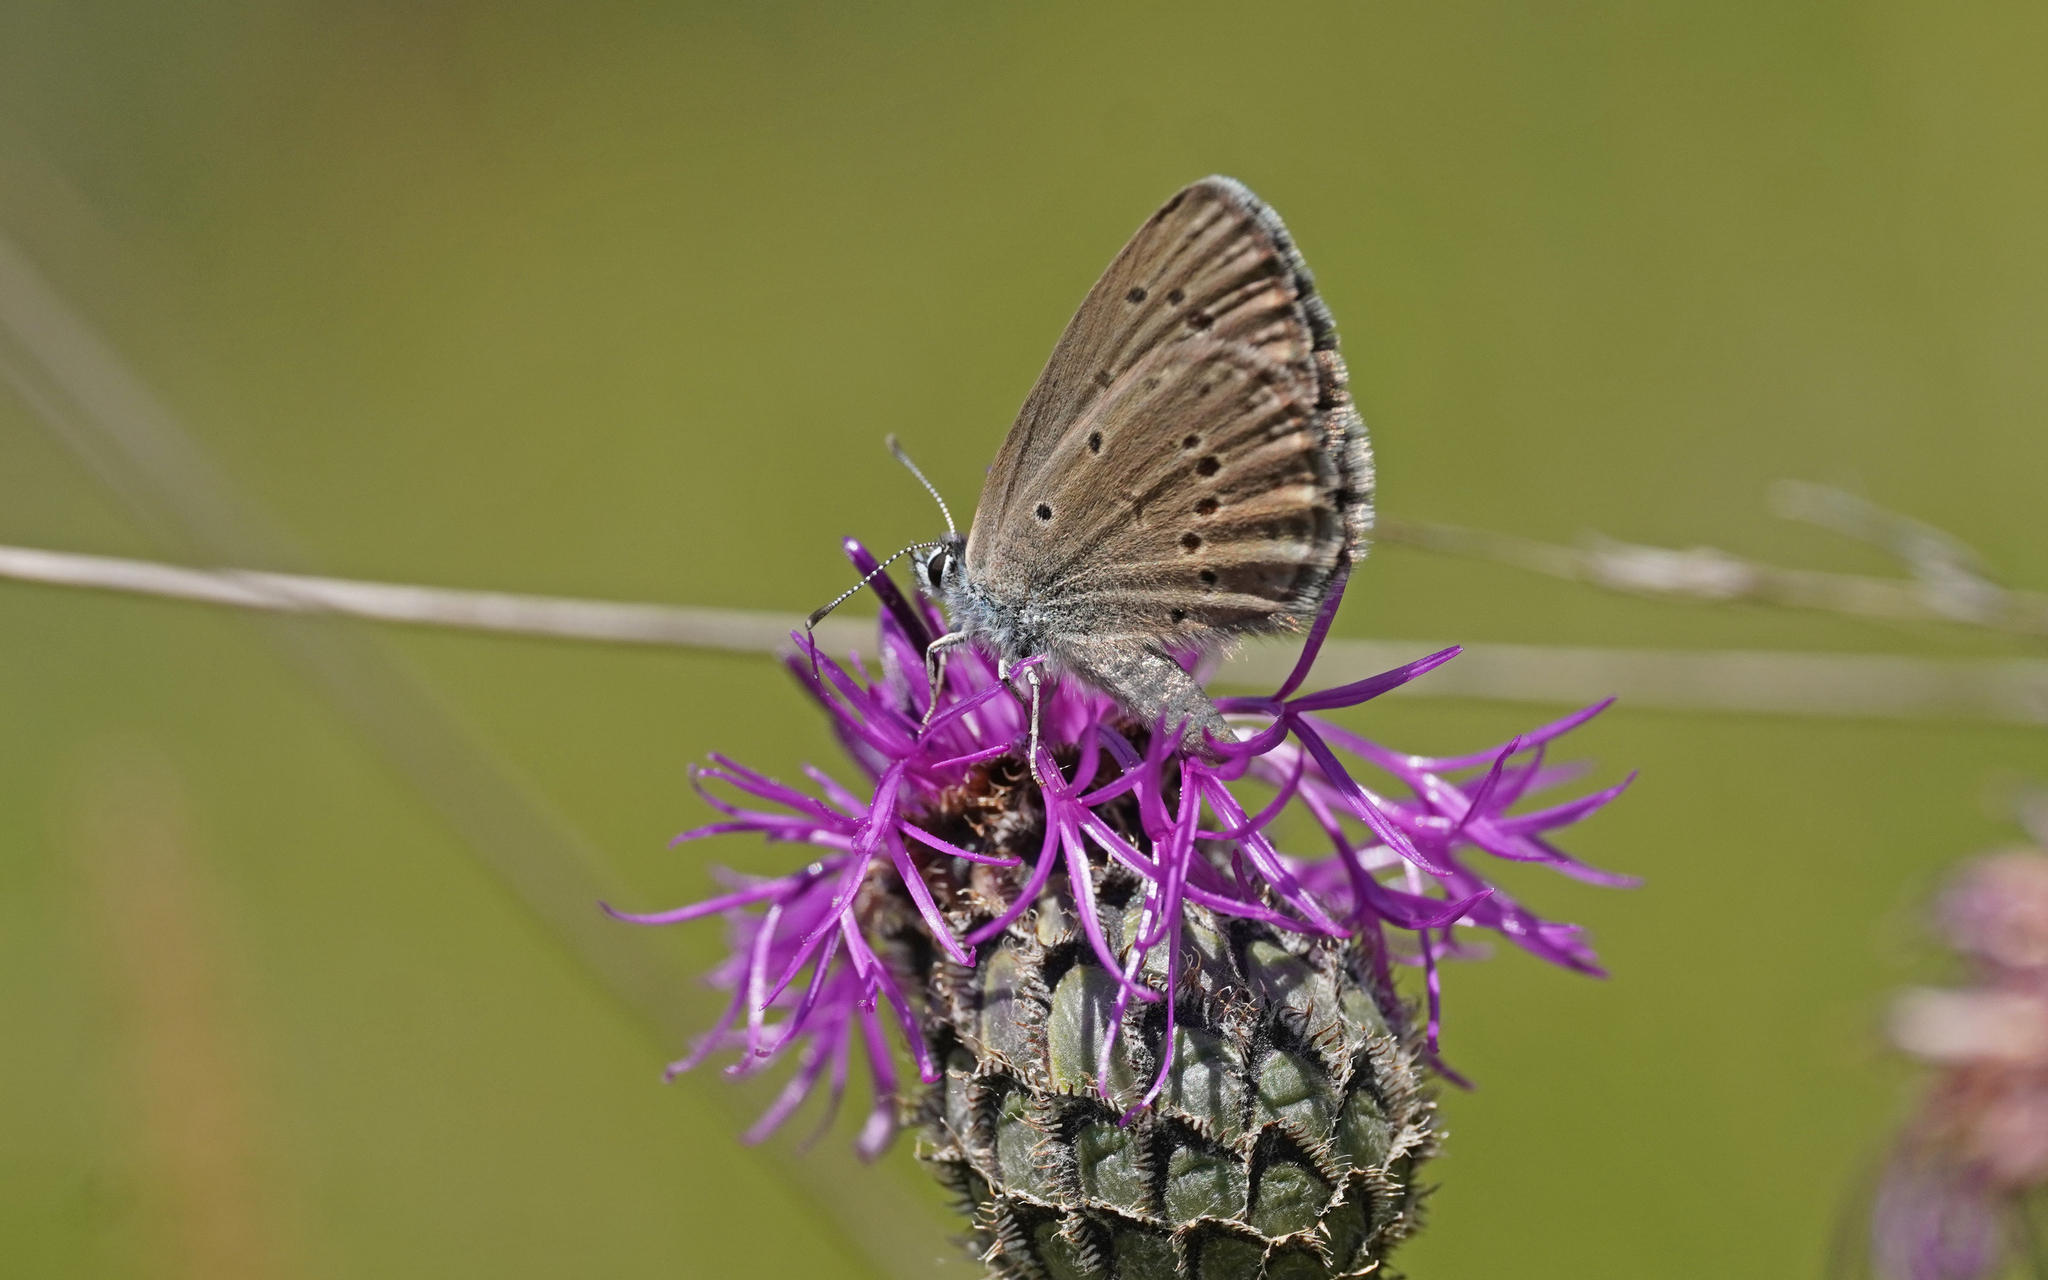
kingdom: Animalia
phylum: Arthropoda
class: Insecta
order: Lepidoptera
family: Lycaenidae
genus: Maculinea
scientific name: Maculinea alcon
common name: Alcon blue
